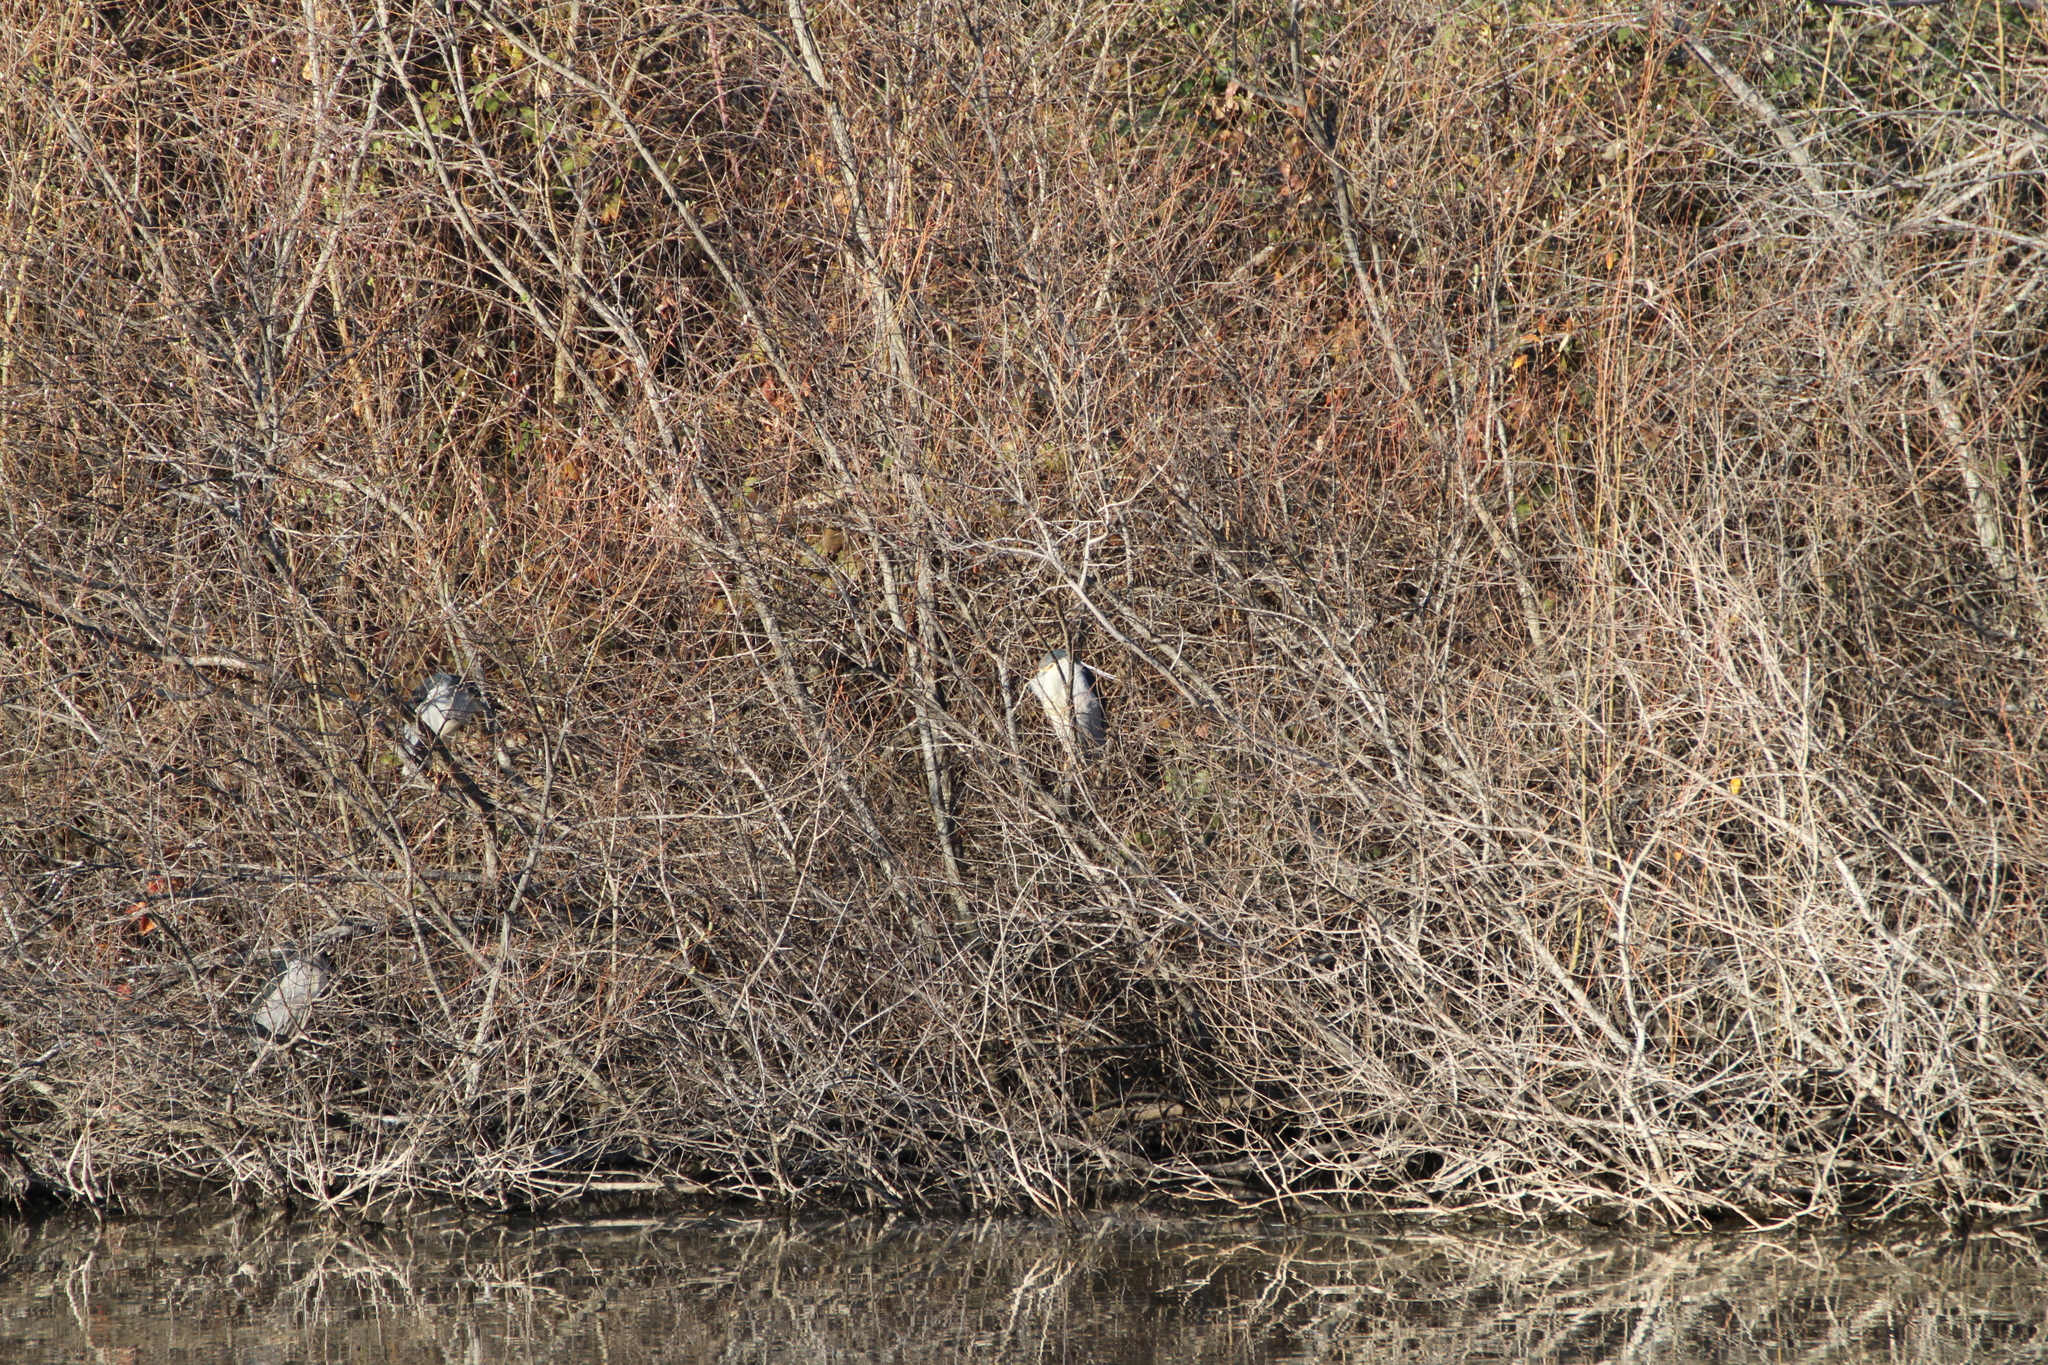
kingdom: Animalia
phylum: Chordata
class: Aves
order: Pelecaniformes
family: Ardeidae
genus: Nycticorax
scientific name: Nycticorax nycticorax
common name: Black-crowned night heron
